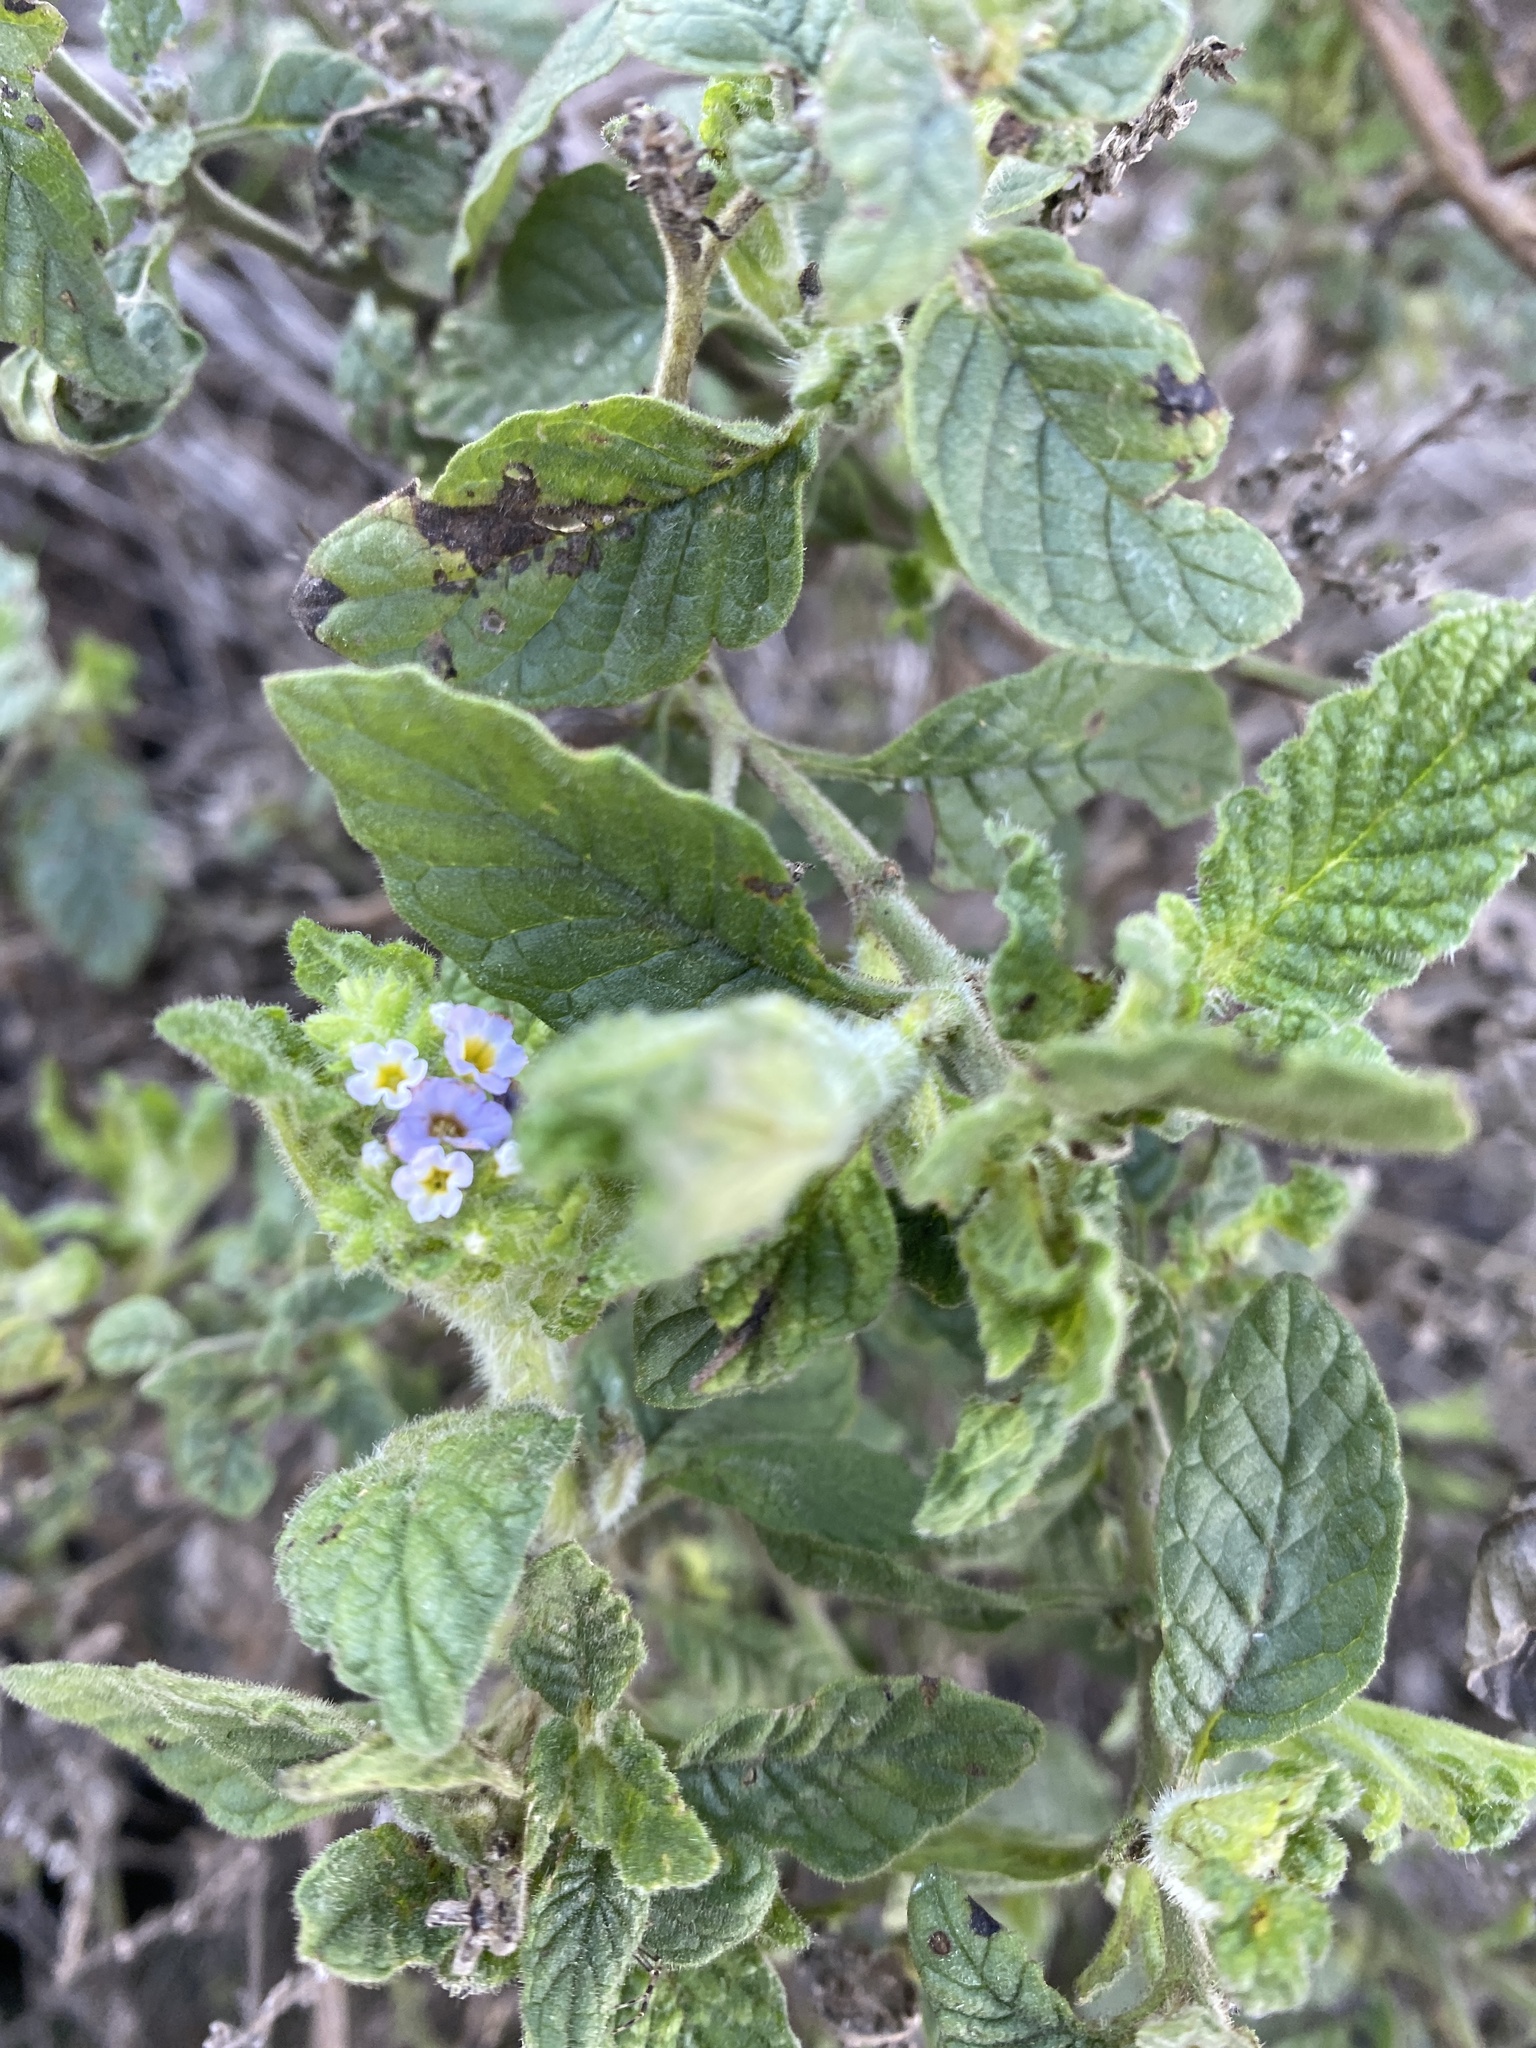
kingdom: Plantae
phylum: Tracheophyta
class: Magnoliopsida
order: Boraginales
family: Heliotropiaceae
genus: Heliotropium
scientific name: Heliotropium amplexicaule
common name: Clasping heliotrope
